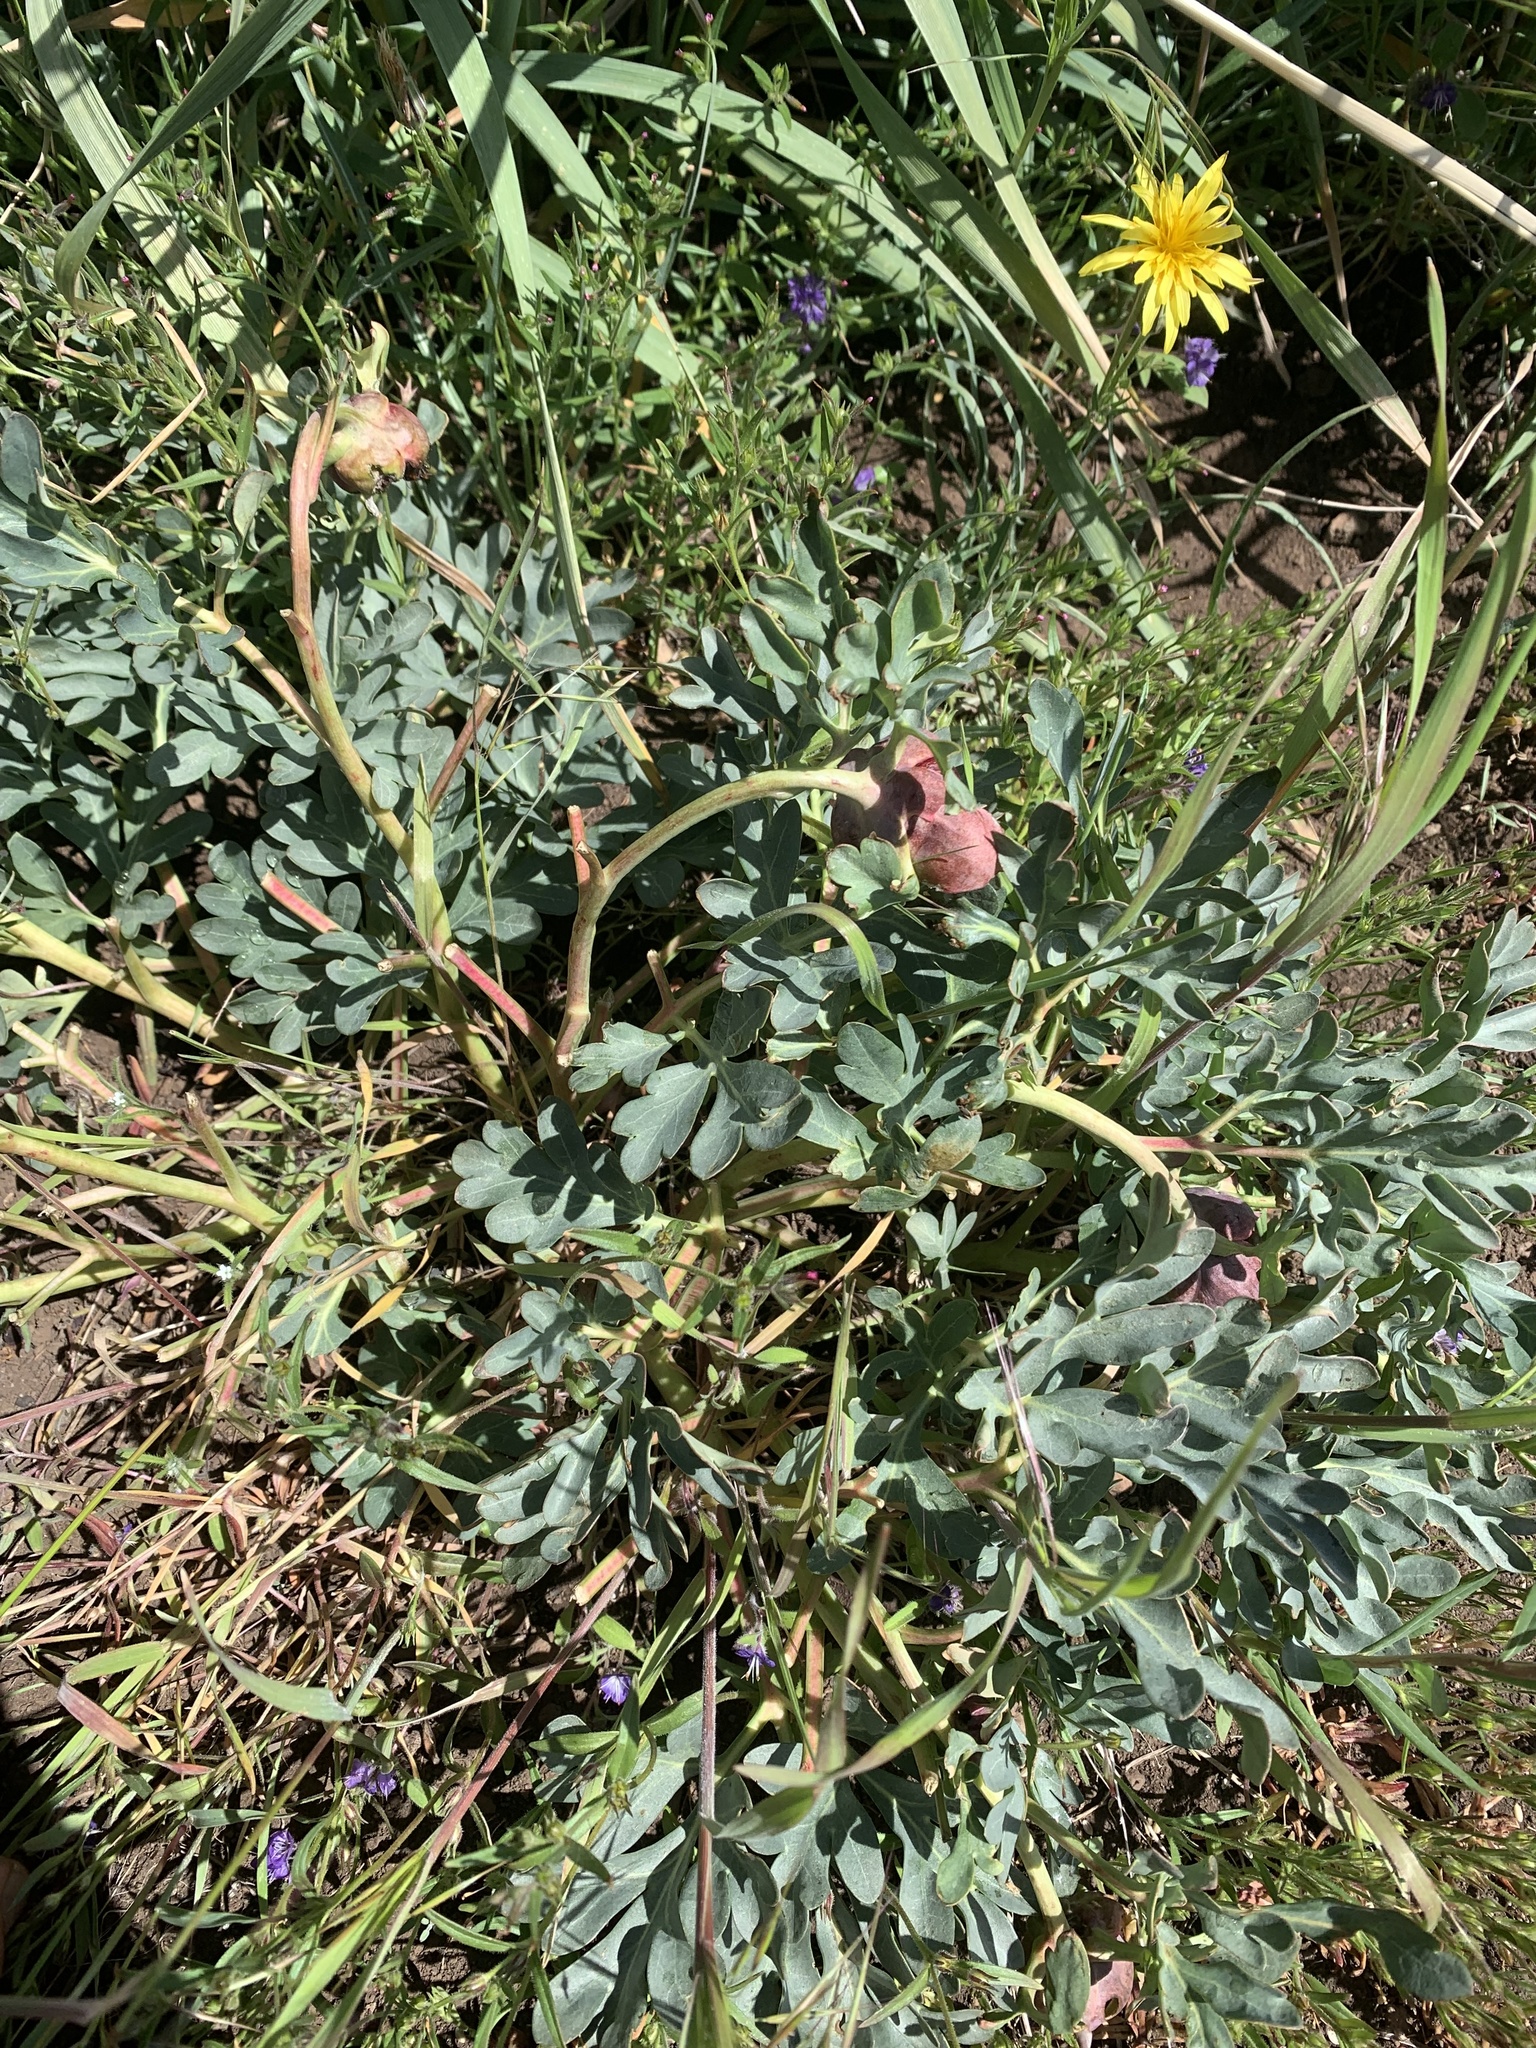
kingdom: Plantae
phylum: Tracheophyta
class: Magnoliopsida
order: Saxifragales
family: Paeoniaceae
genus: Paeonia
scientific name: Paeonia brownii
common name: Brown's peony
